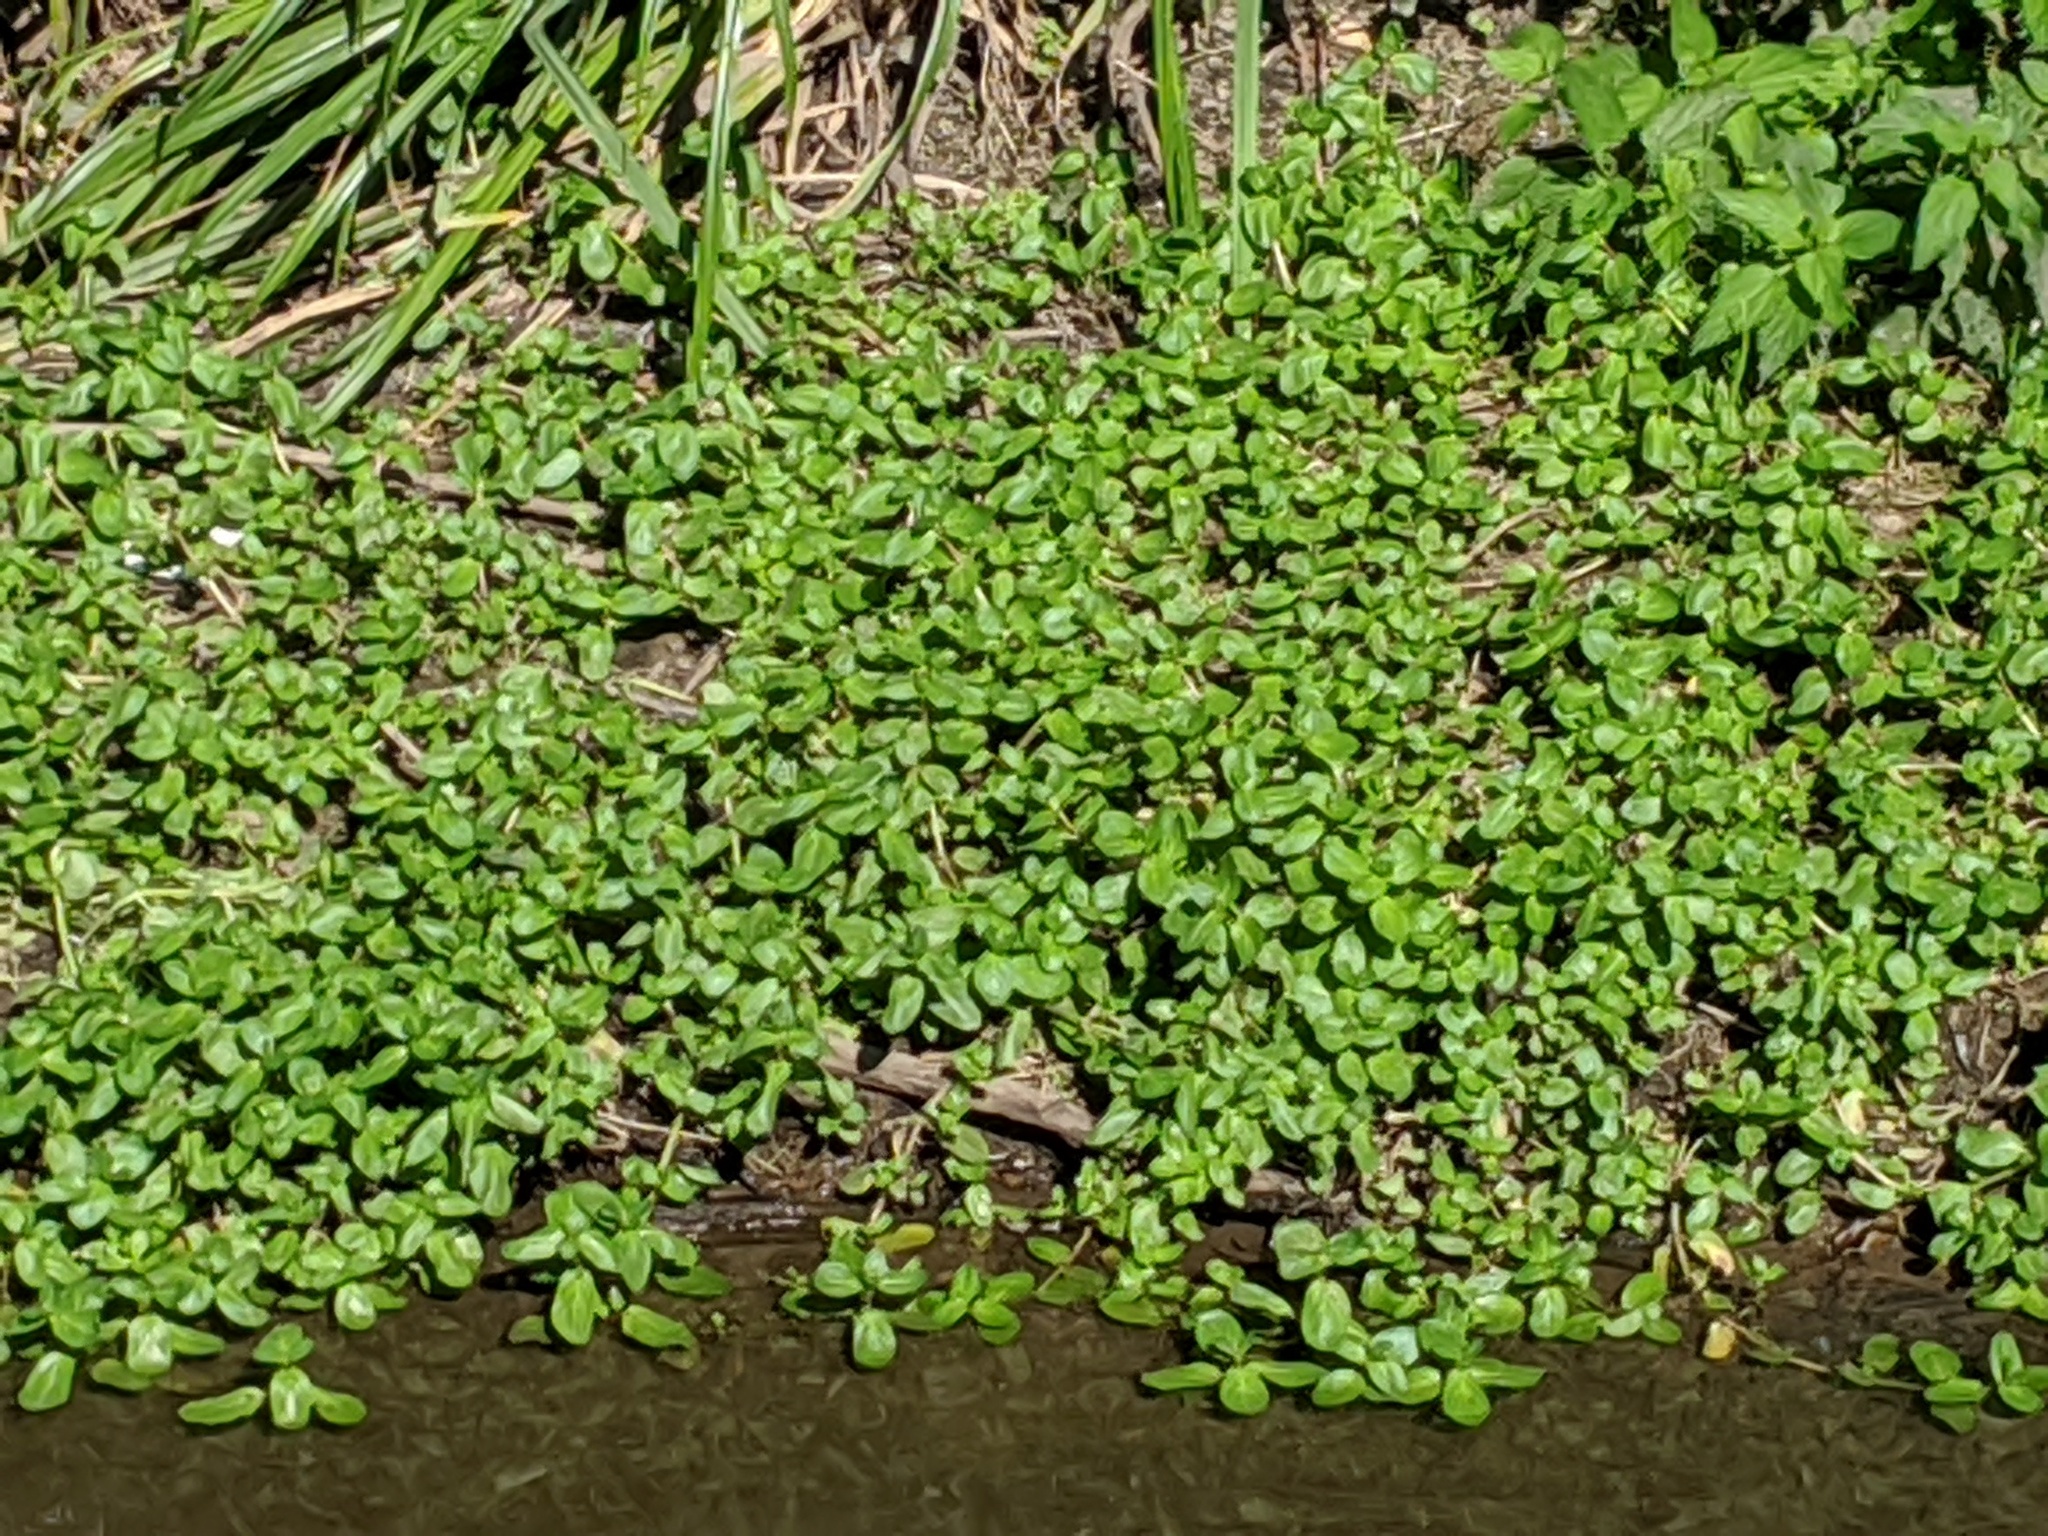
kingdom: Plantae
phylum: Tracheophyta
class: Magnoliopsida
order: Lamiales
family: Plantaginaceae
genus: Veronica
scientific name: Veronica beccabunga
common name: Brooklime
